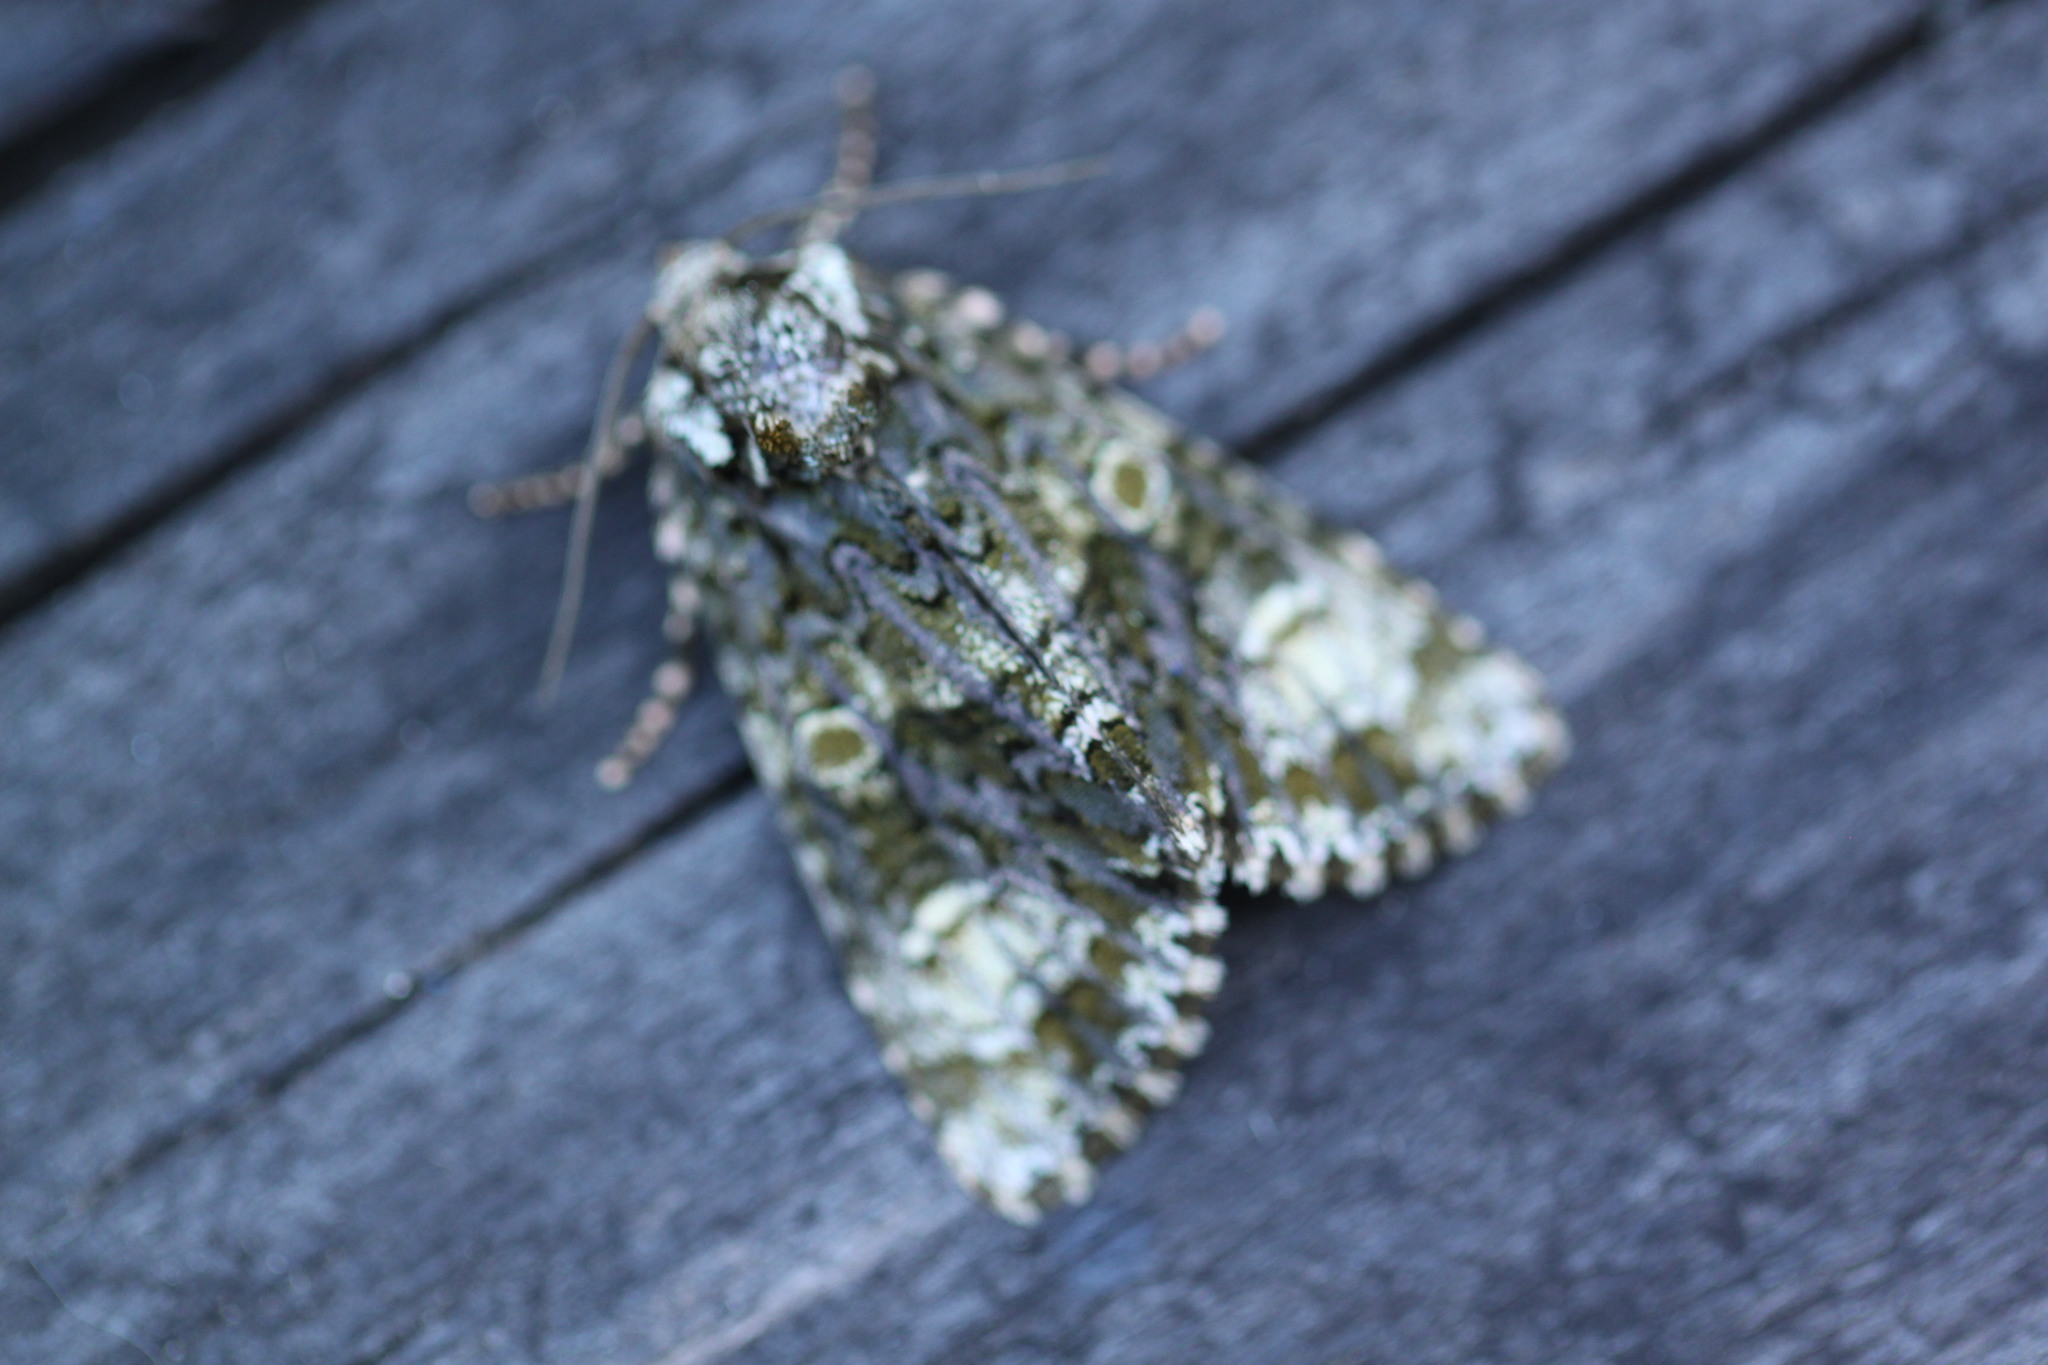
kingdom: Animalia
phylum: Arthropoda
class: Insecta
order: Lepidoptera
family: Noctuidae
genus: Craniophora
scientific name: Craniophora ligustri
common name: Coronet
